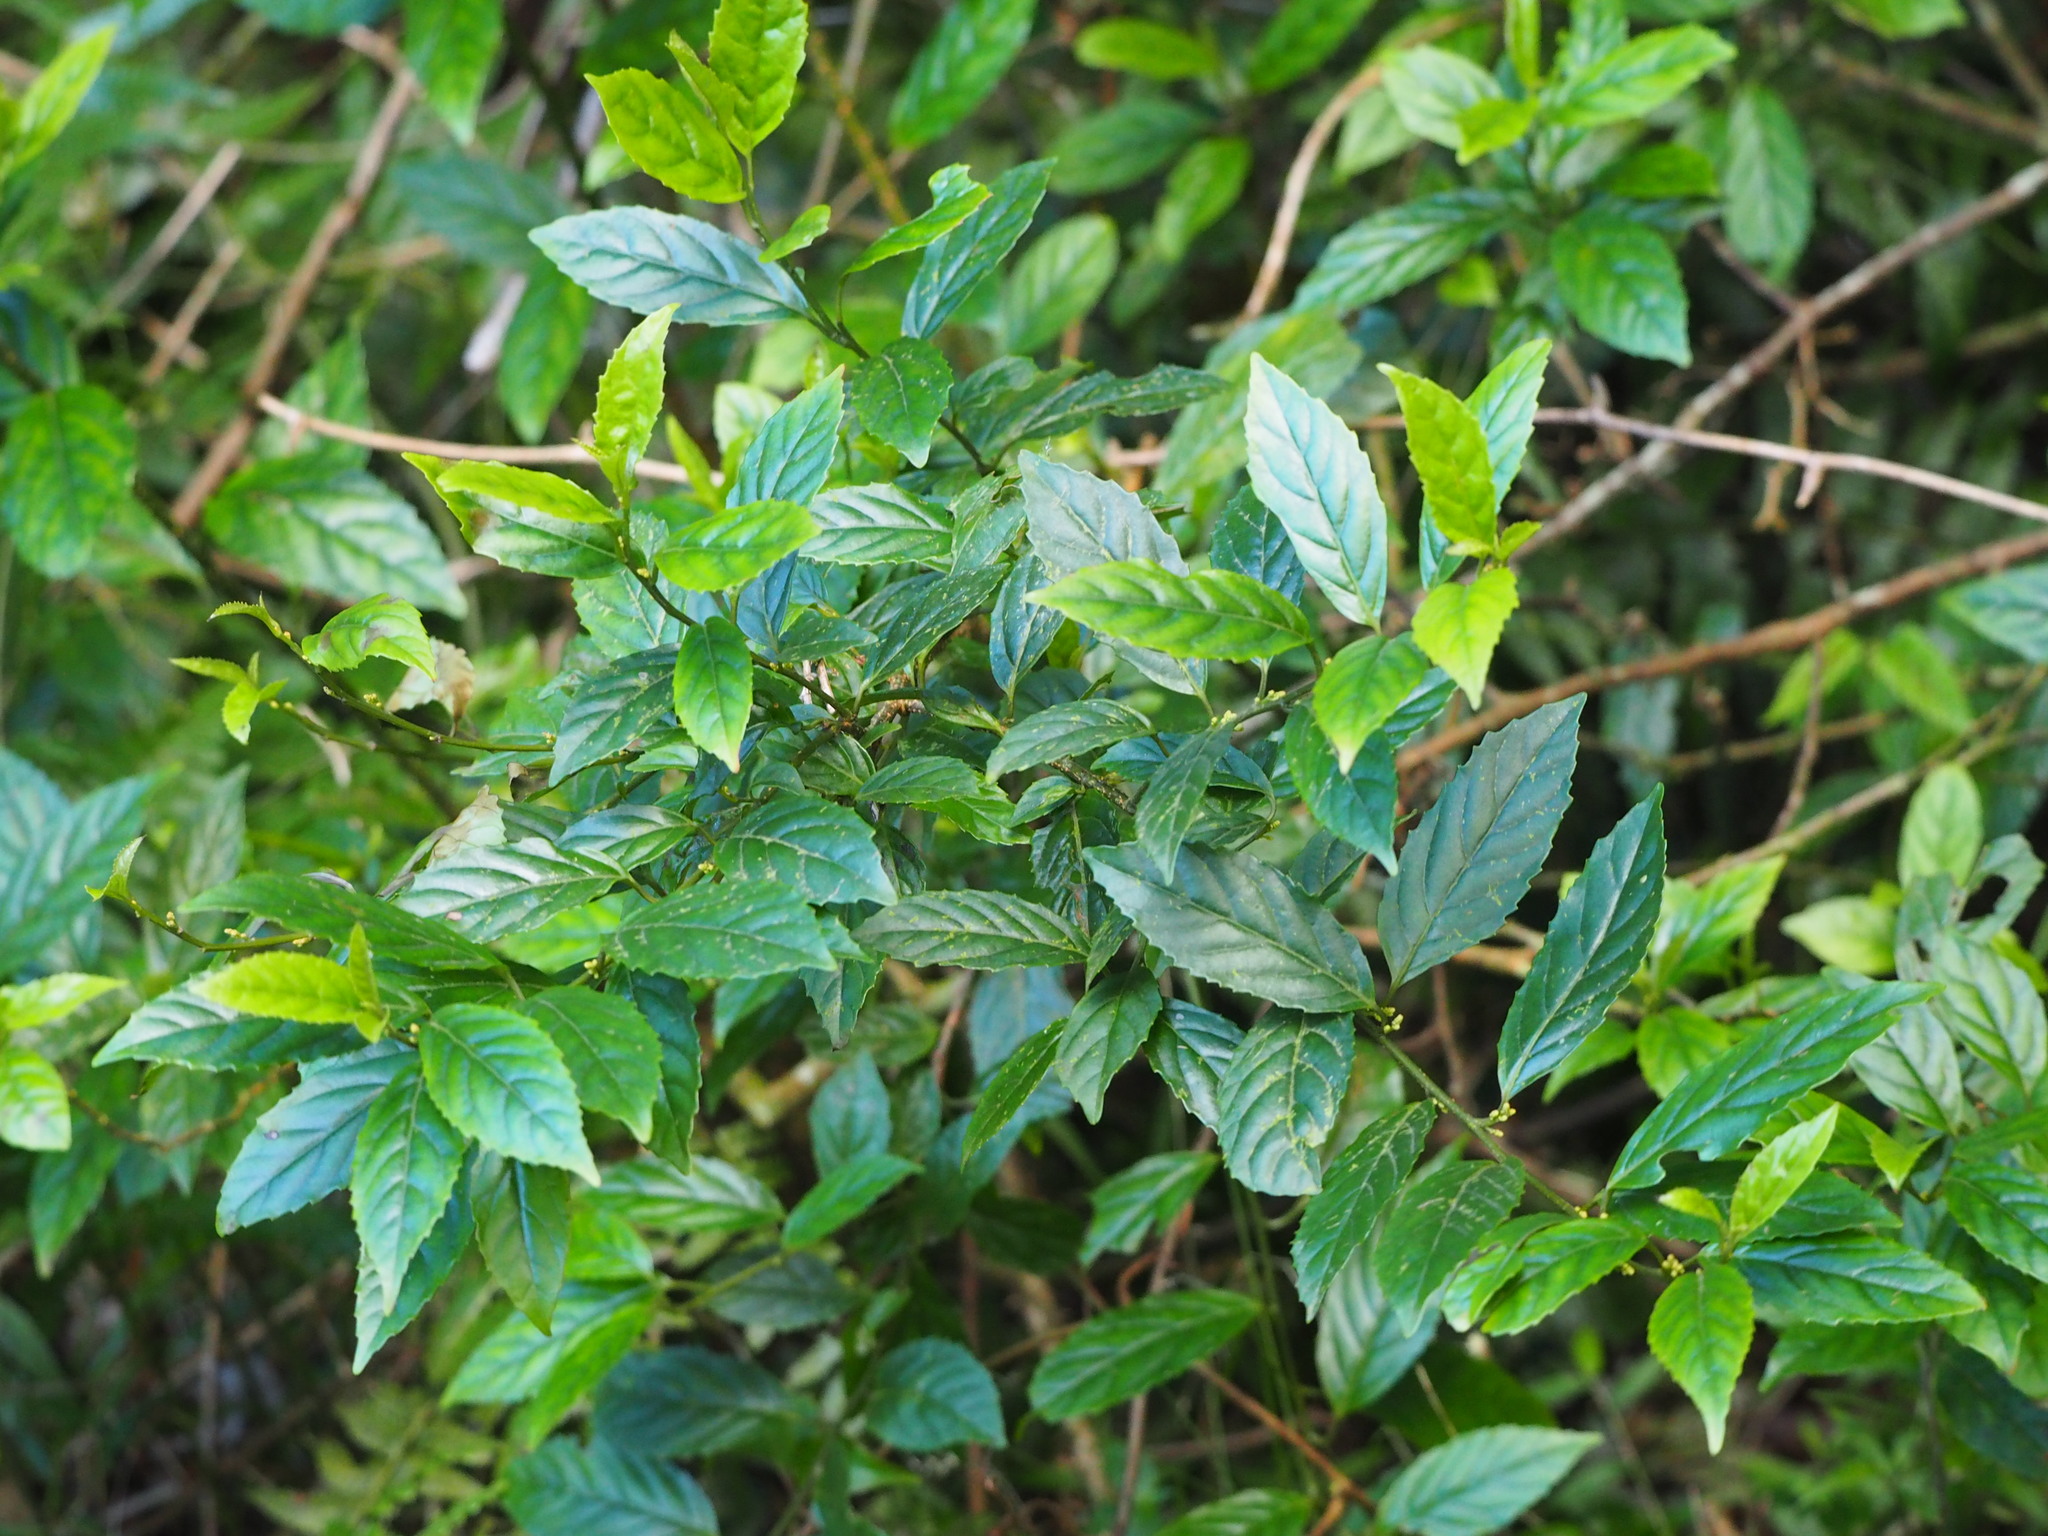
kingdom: Plantae
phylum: Tracheophyta
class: Magnoliopsida
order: Ericales
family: Primulaceae
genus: Maesa
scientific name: Maesa perlaria
